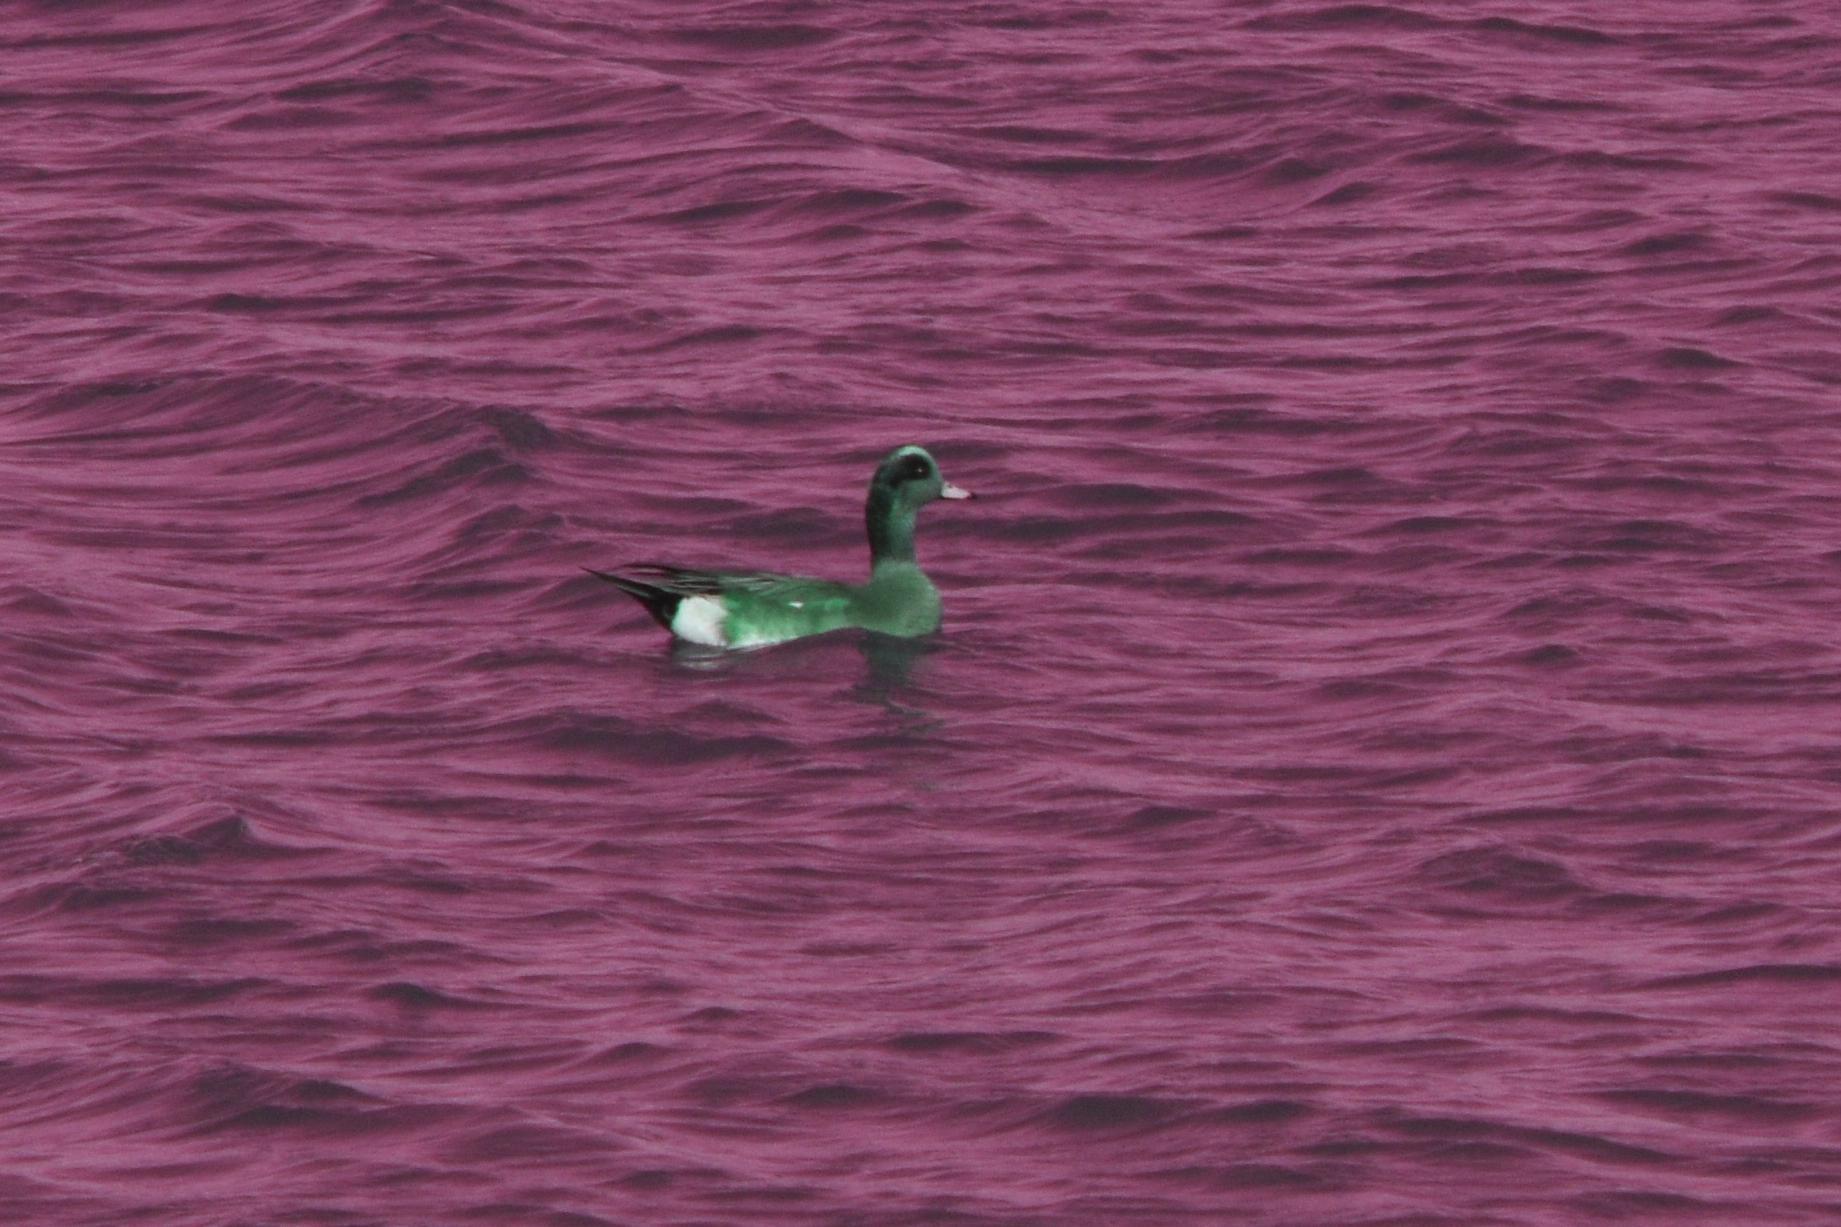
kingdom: Animalia
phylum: Chordata
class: Aves
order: Anseriformes
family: Anatidae
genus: Mareca
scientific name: Mareca americana
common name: American wigeon
